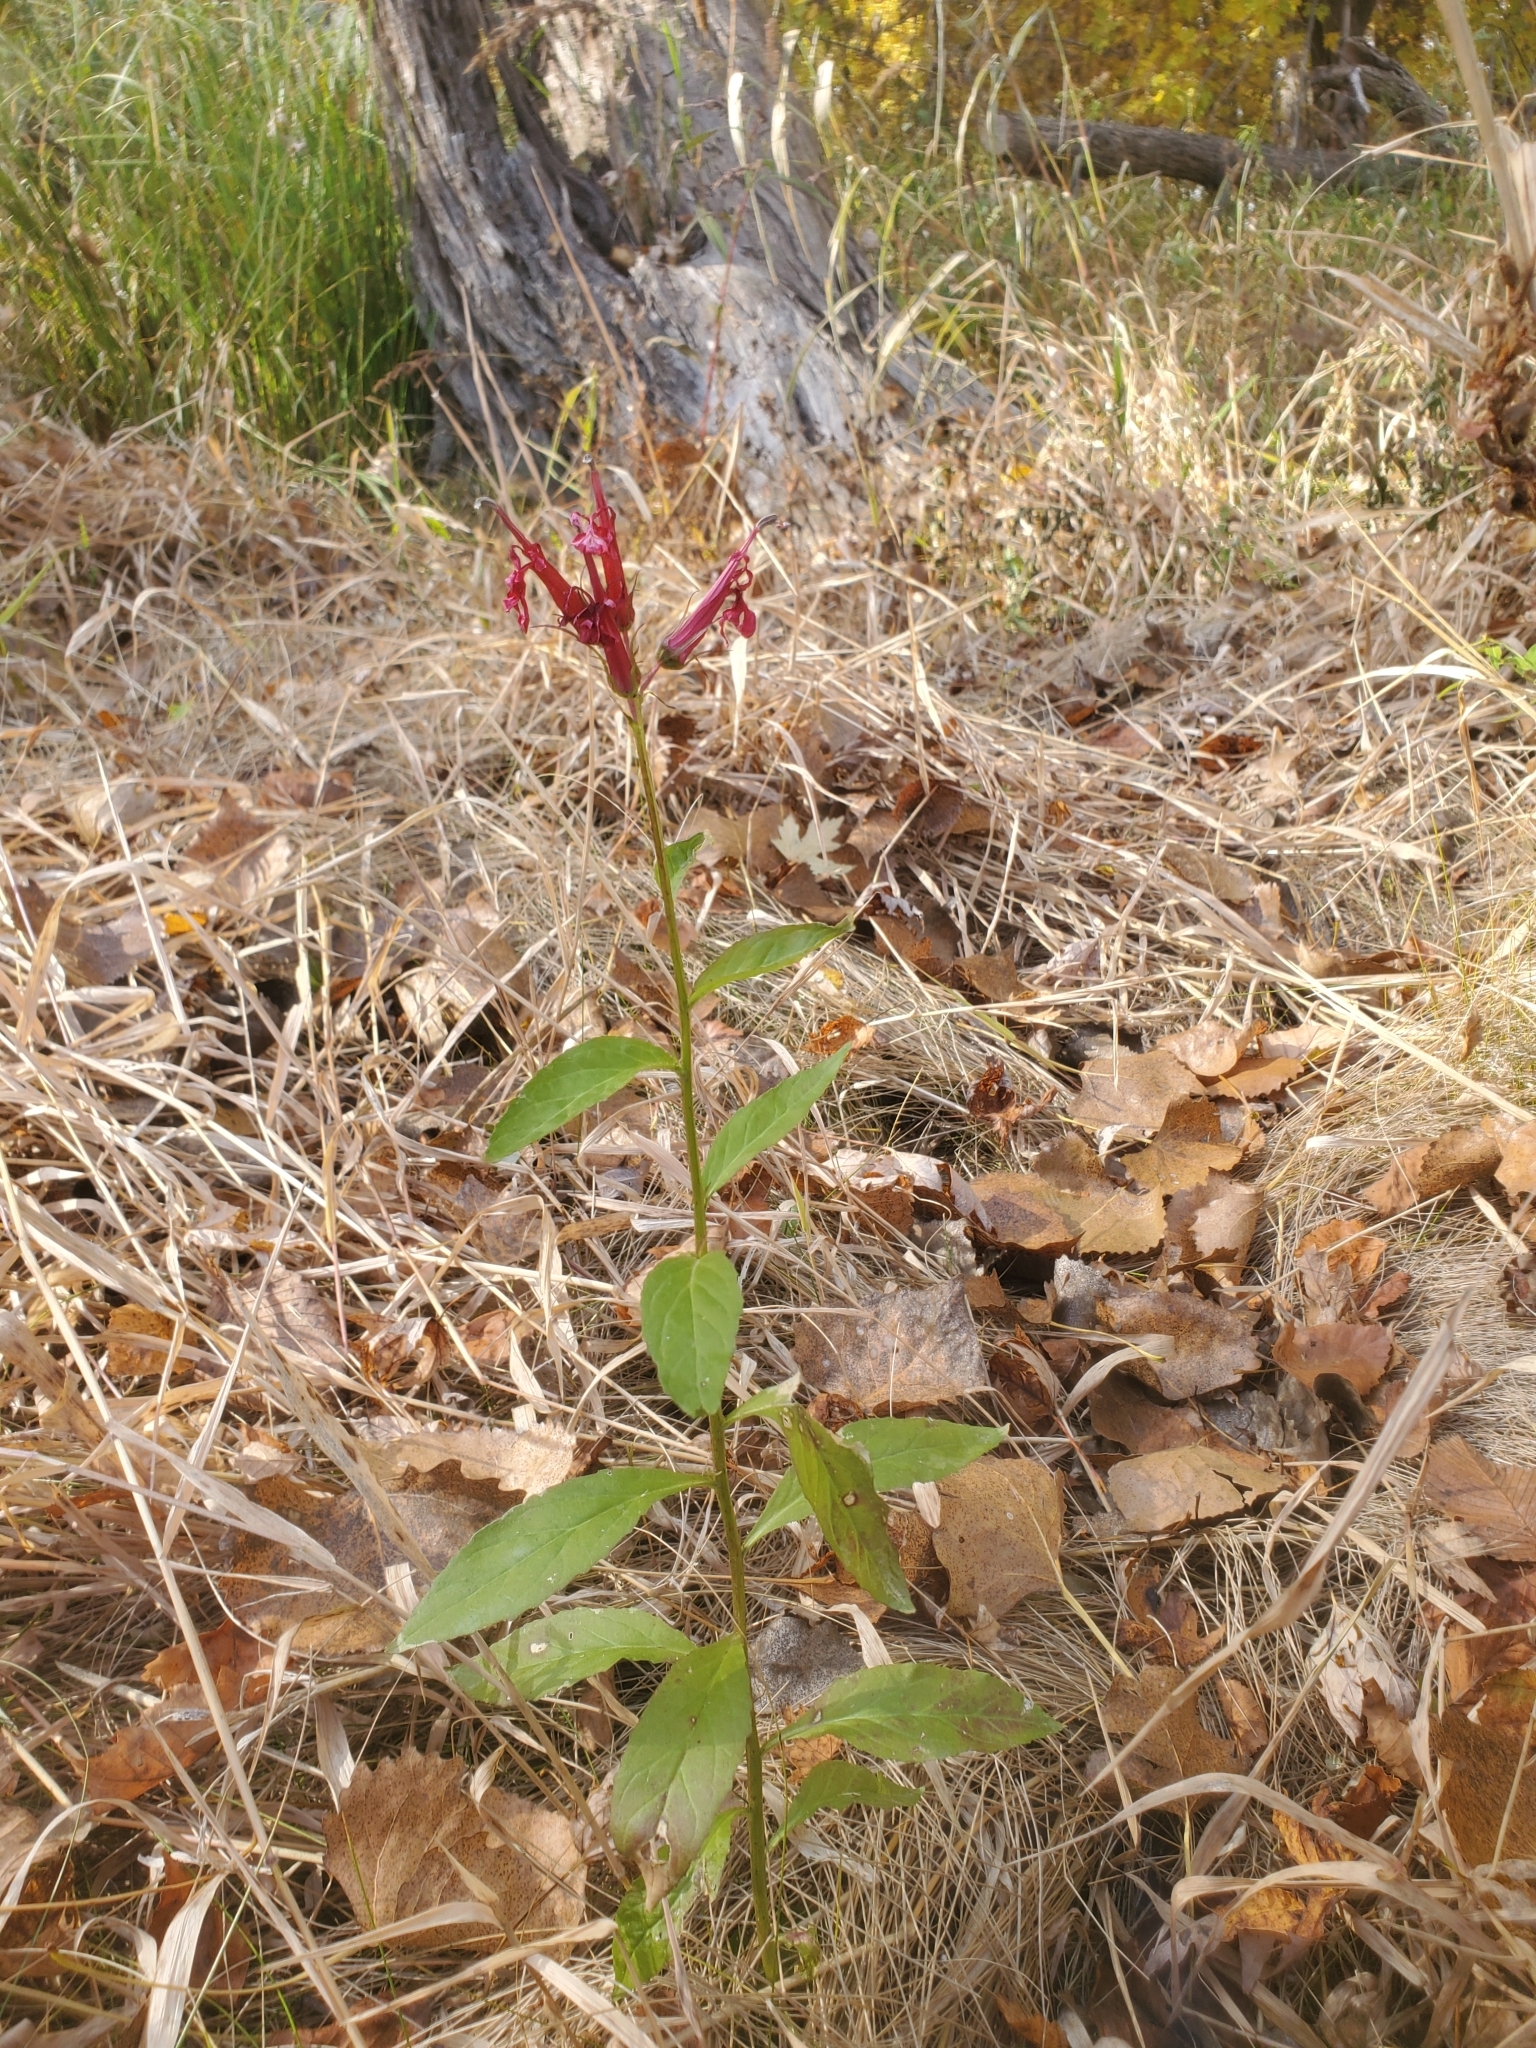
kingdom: Plantae
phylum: Tracheophyta
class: Magnoliopsida
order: Asterales
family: Campanulaceae
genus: Lobelia
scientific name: Lobelia cardinalis
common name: Cardinal flower
